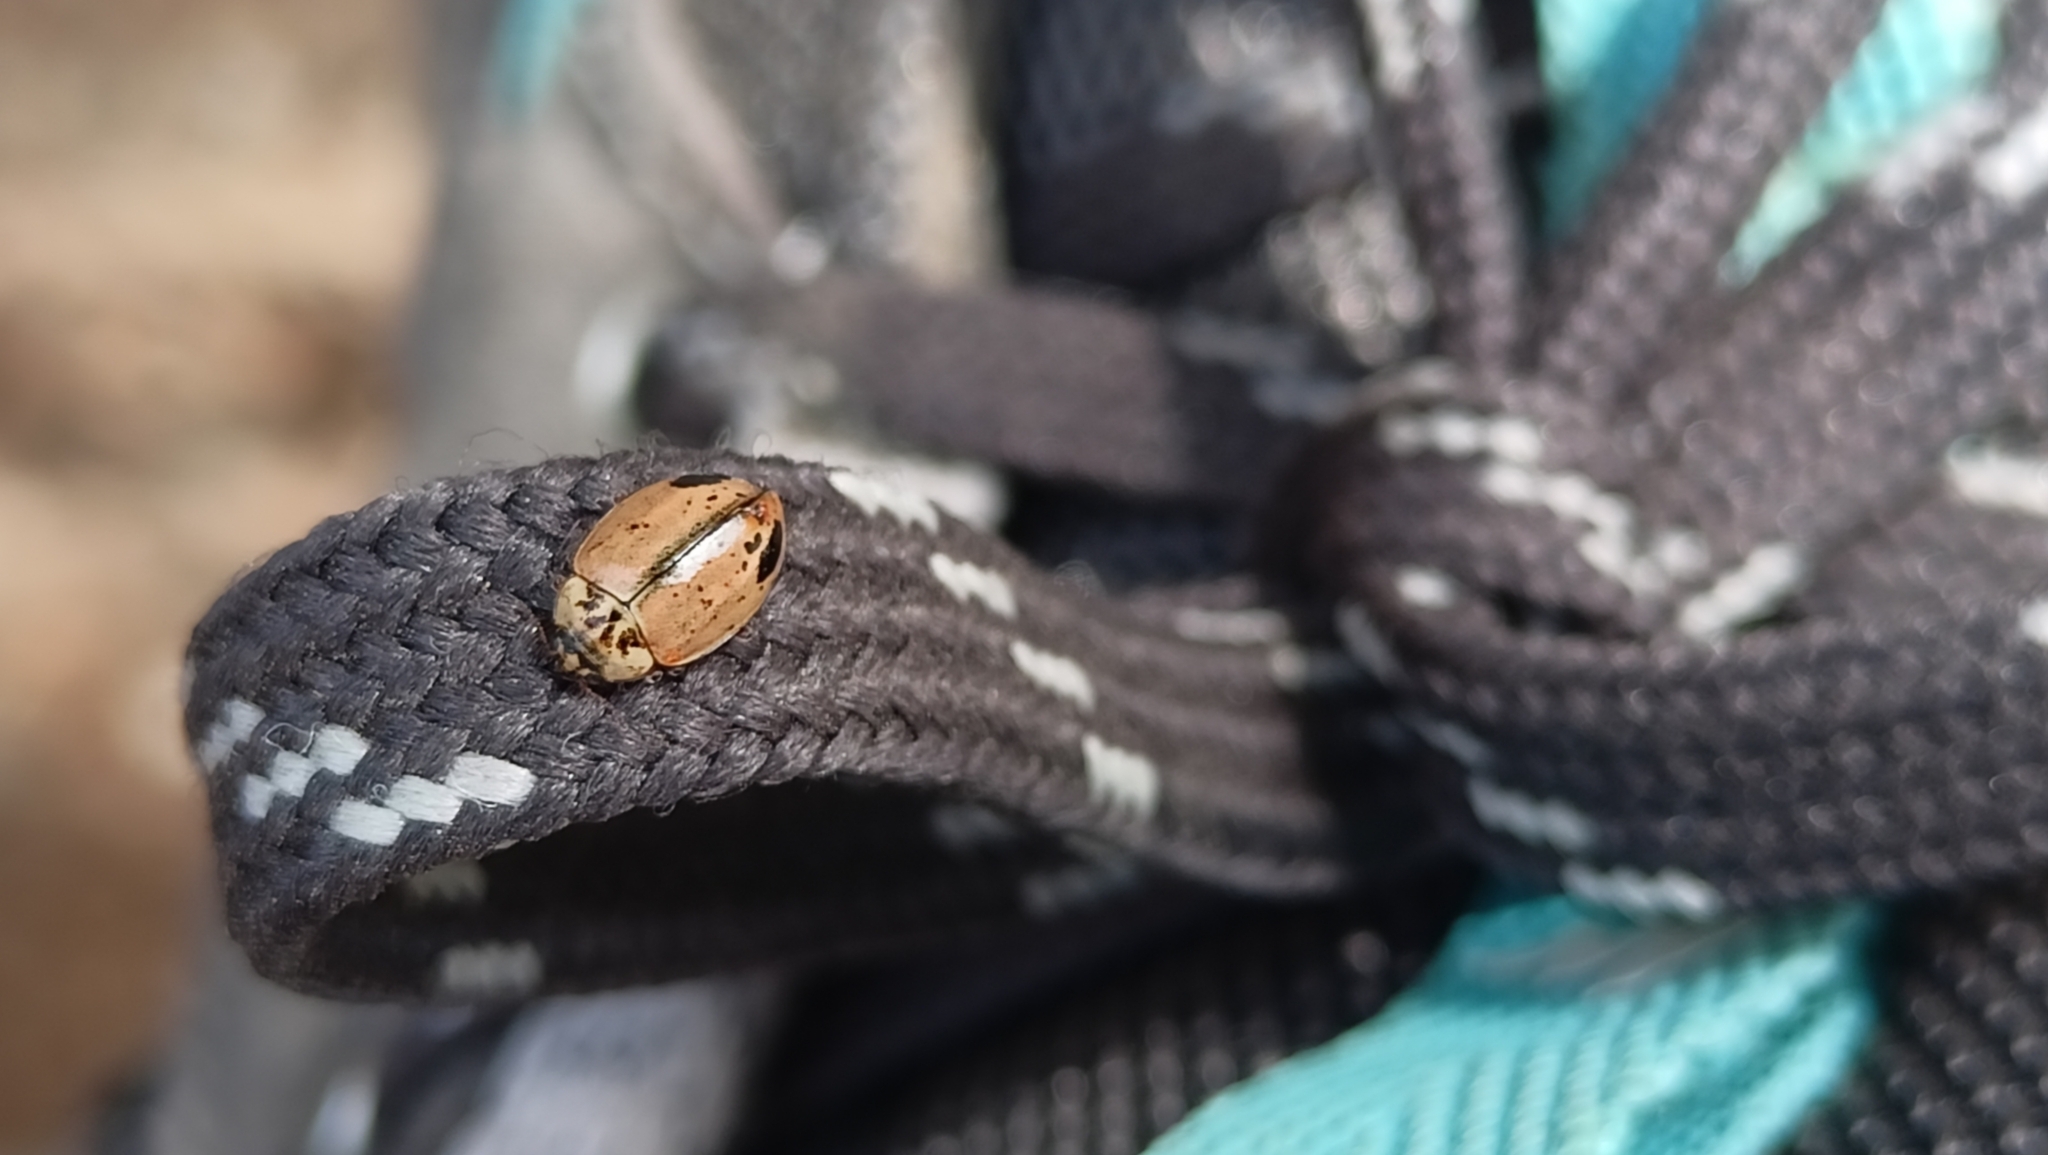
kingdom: Animalia
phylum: Arthropoda
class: Insecta
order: Coleoptera
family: Coccinellidae
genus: Aphidecta
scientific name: Aphidecta obliterata
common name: Larch ladybird
